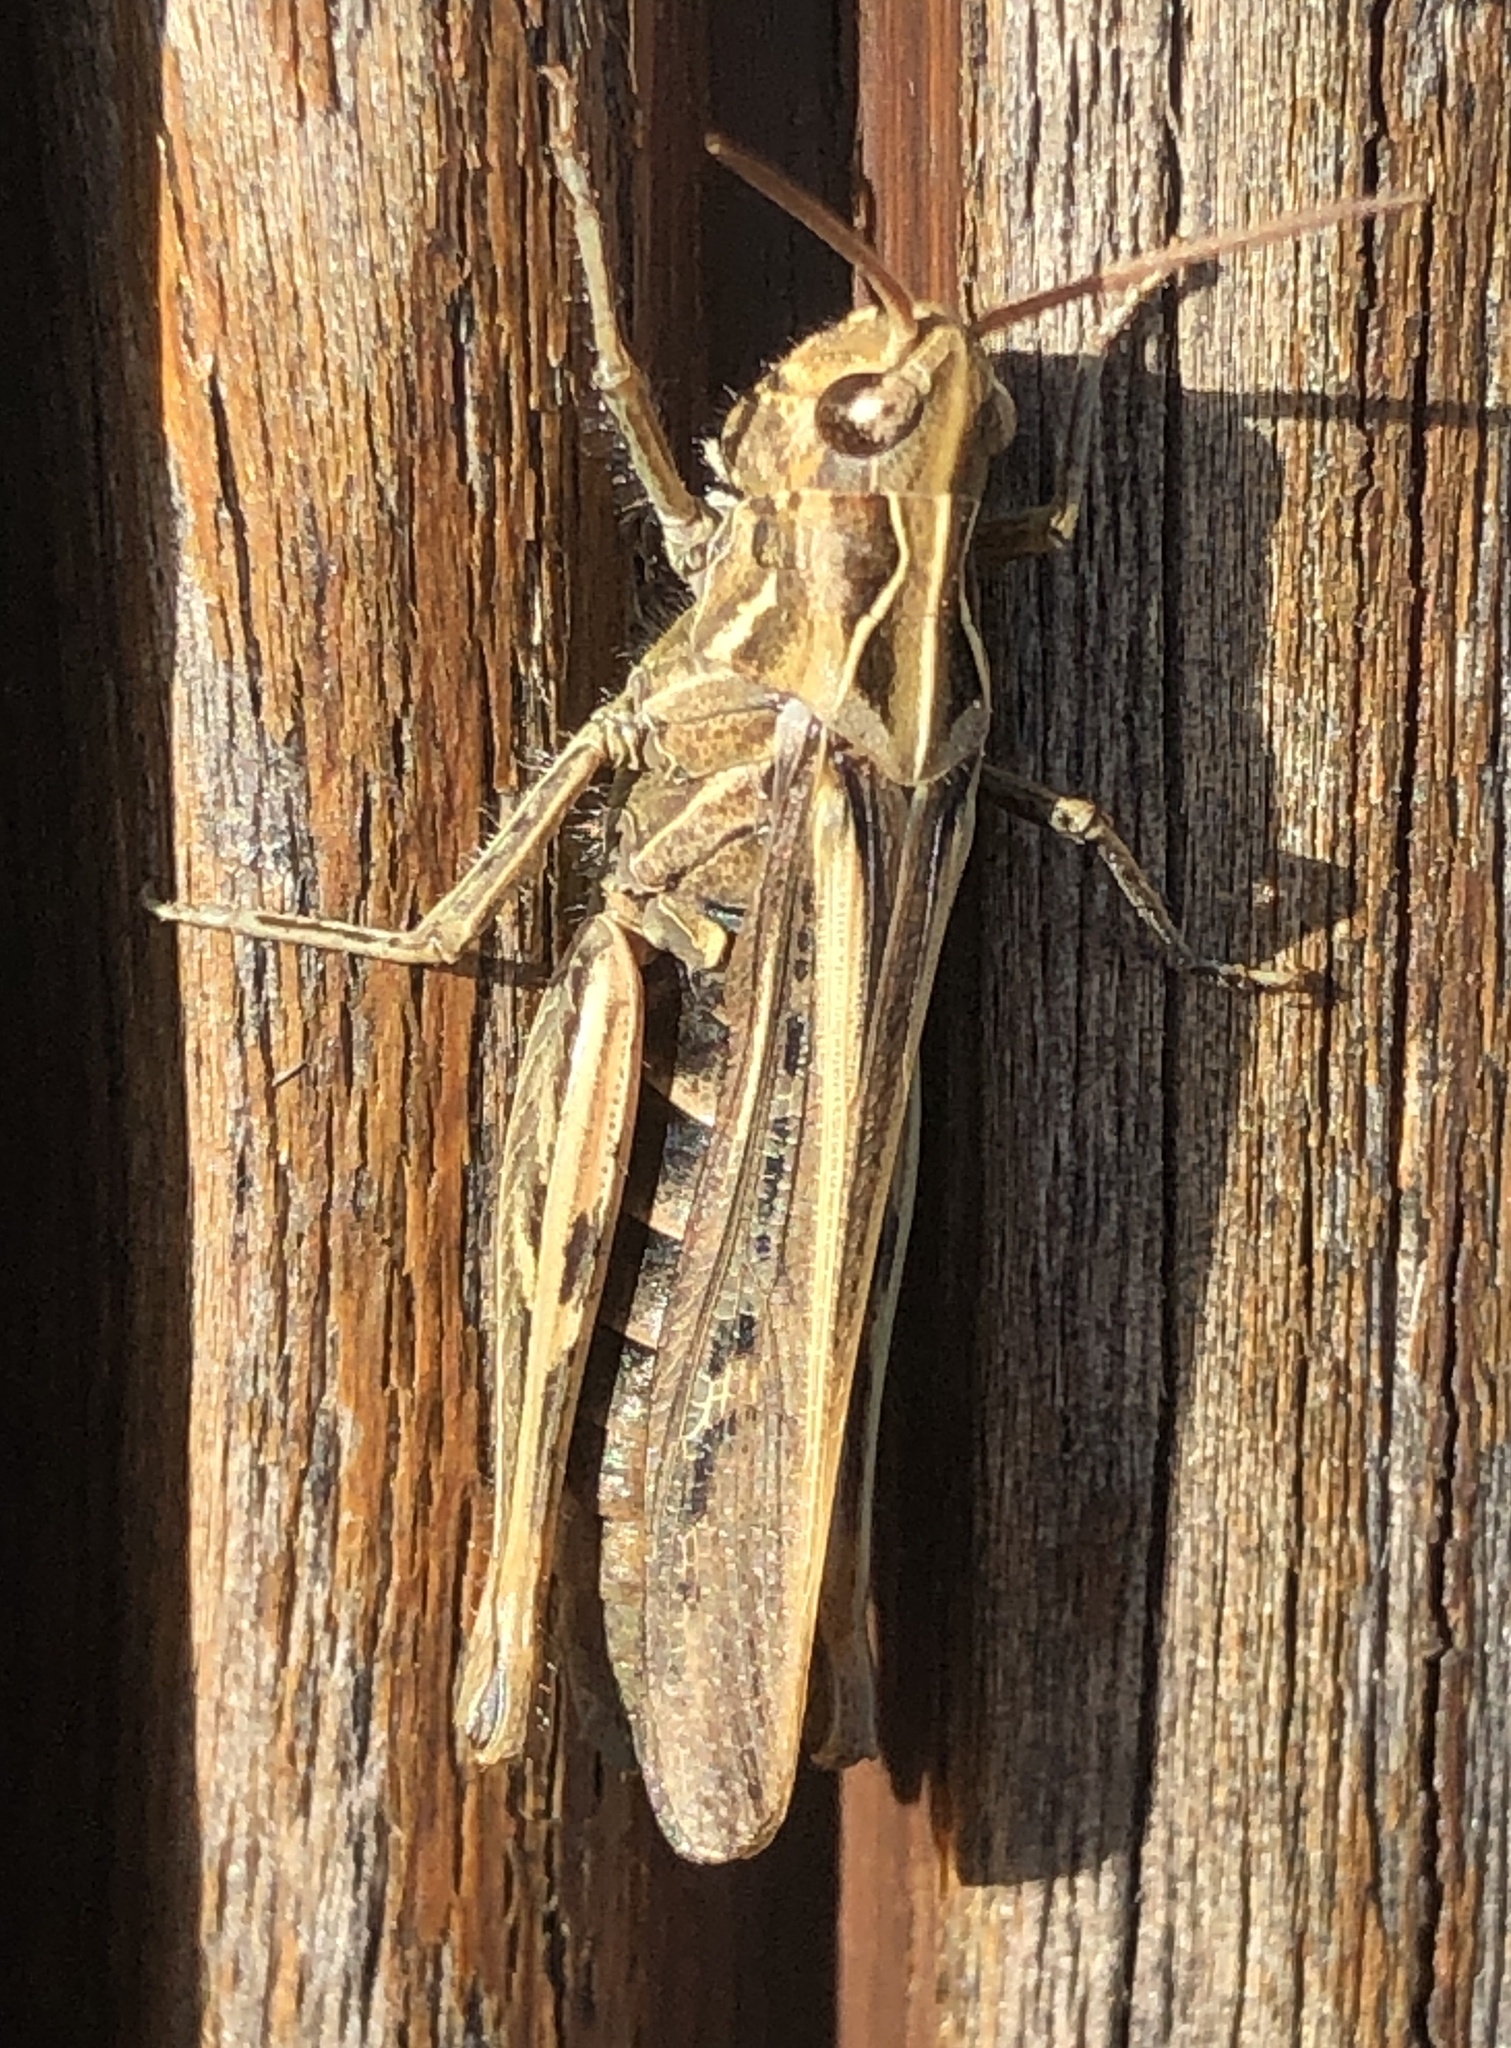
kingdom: Animalia
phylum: Arthropoda
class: Insecta
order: Orthoptera
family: Acrididae
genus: Chorthippus
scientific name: Chorthippus brunneus
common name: Field grasshopper
